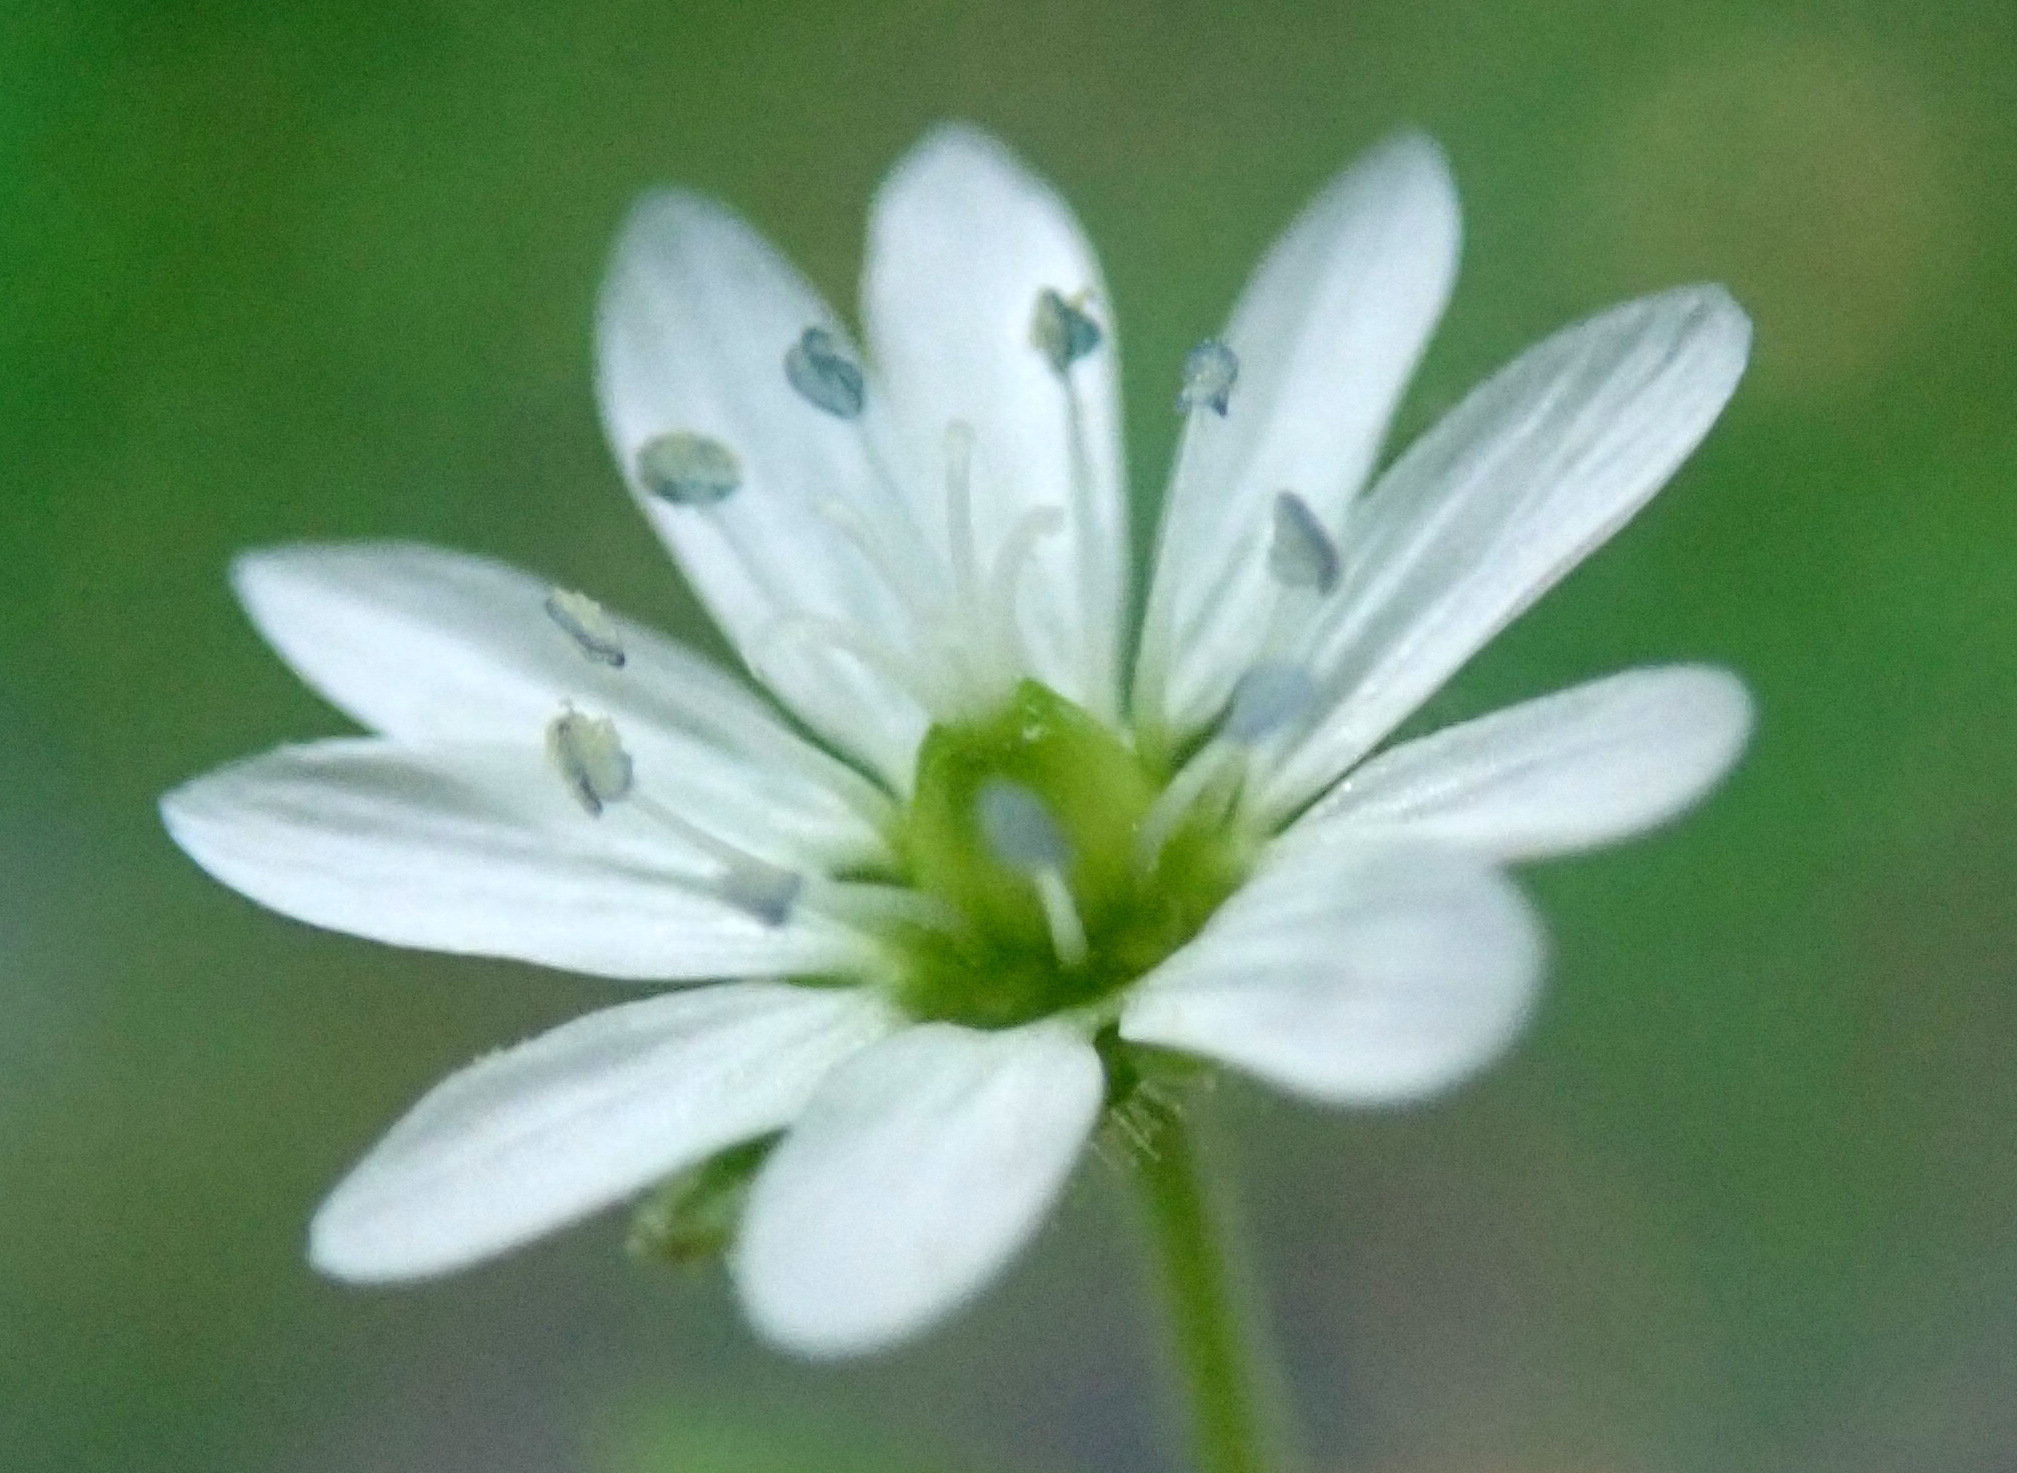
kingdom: Plantae
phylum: Tracheophyta
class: Magnoliopsida
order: Caryophyllales
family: Caryophyllaceae
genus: Stellaria
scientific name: Stellaria aquatica
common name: Water chickweed
